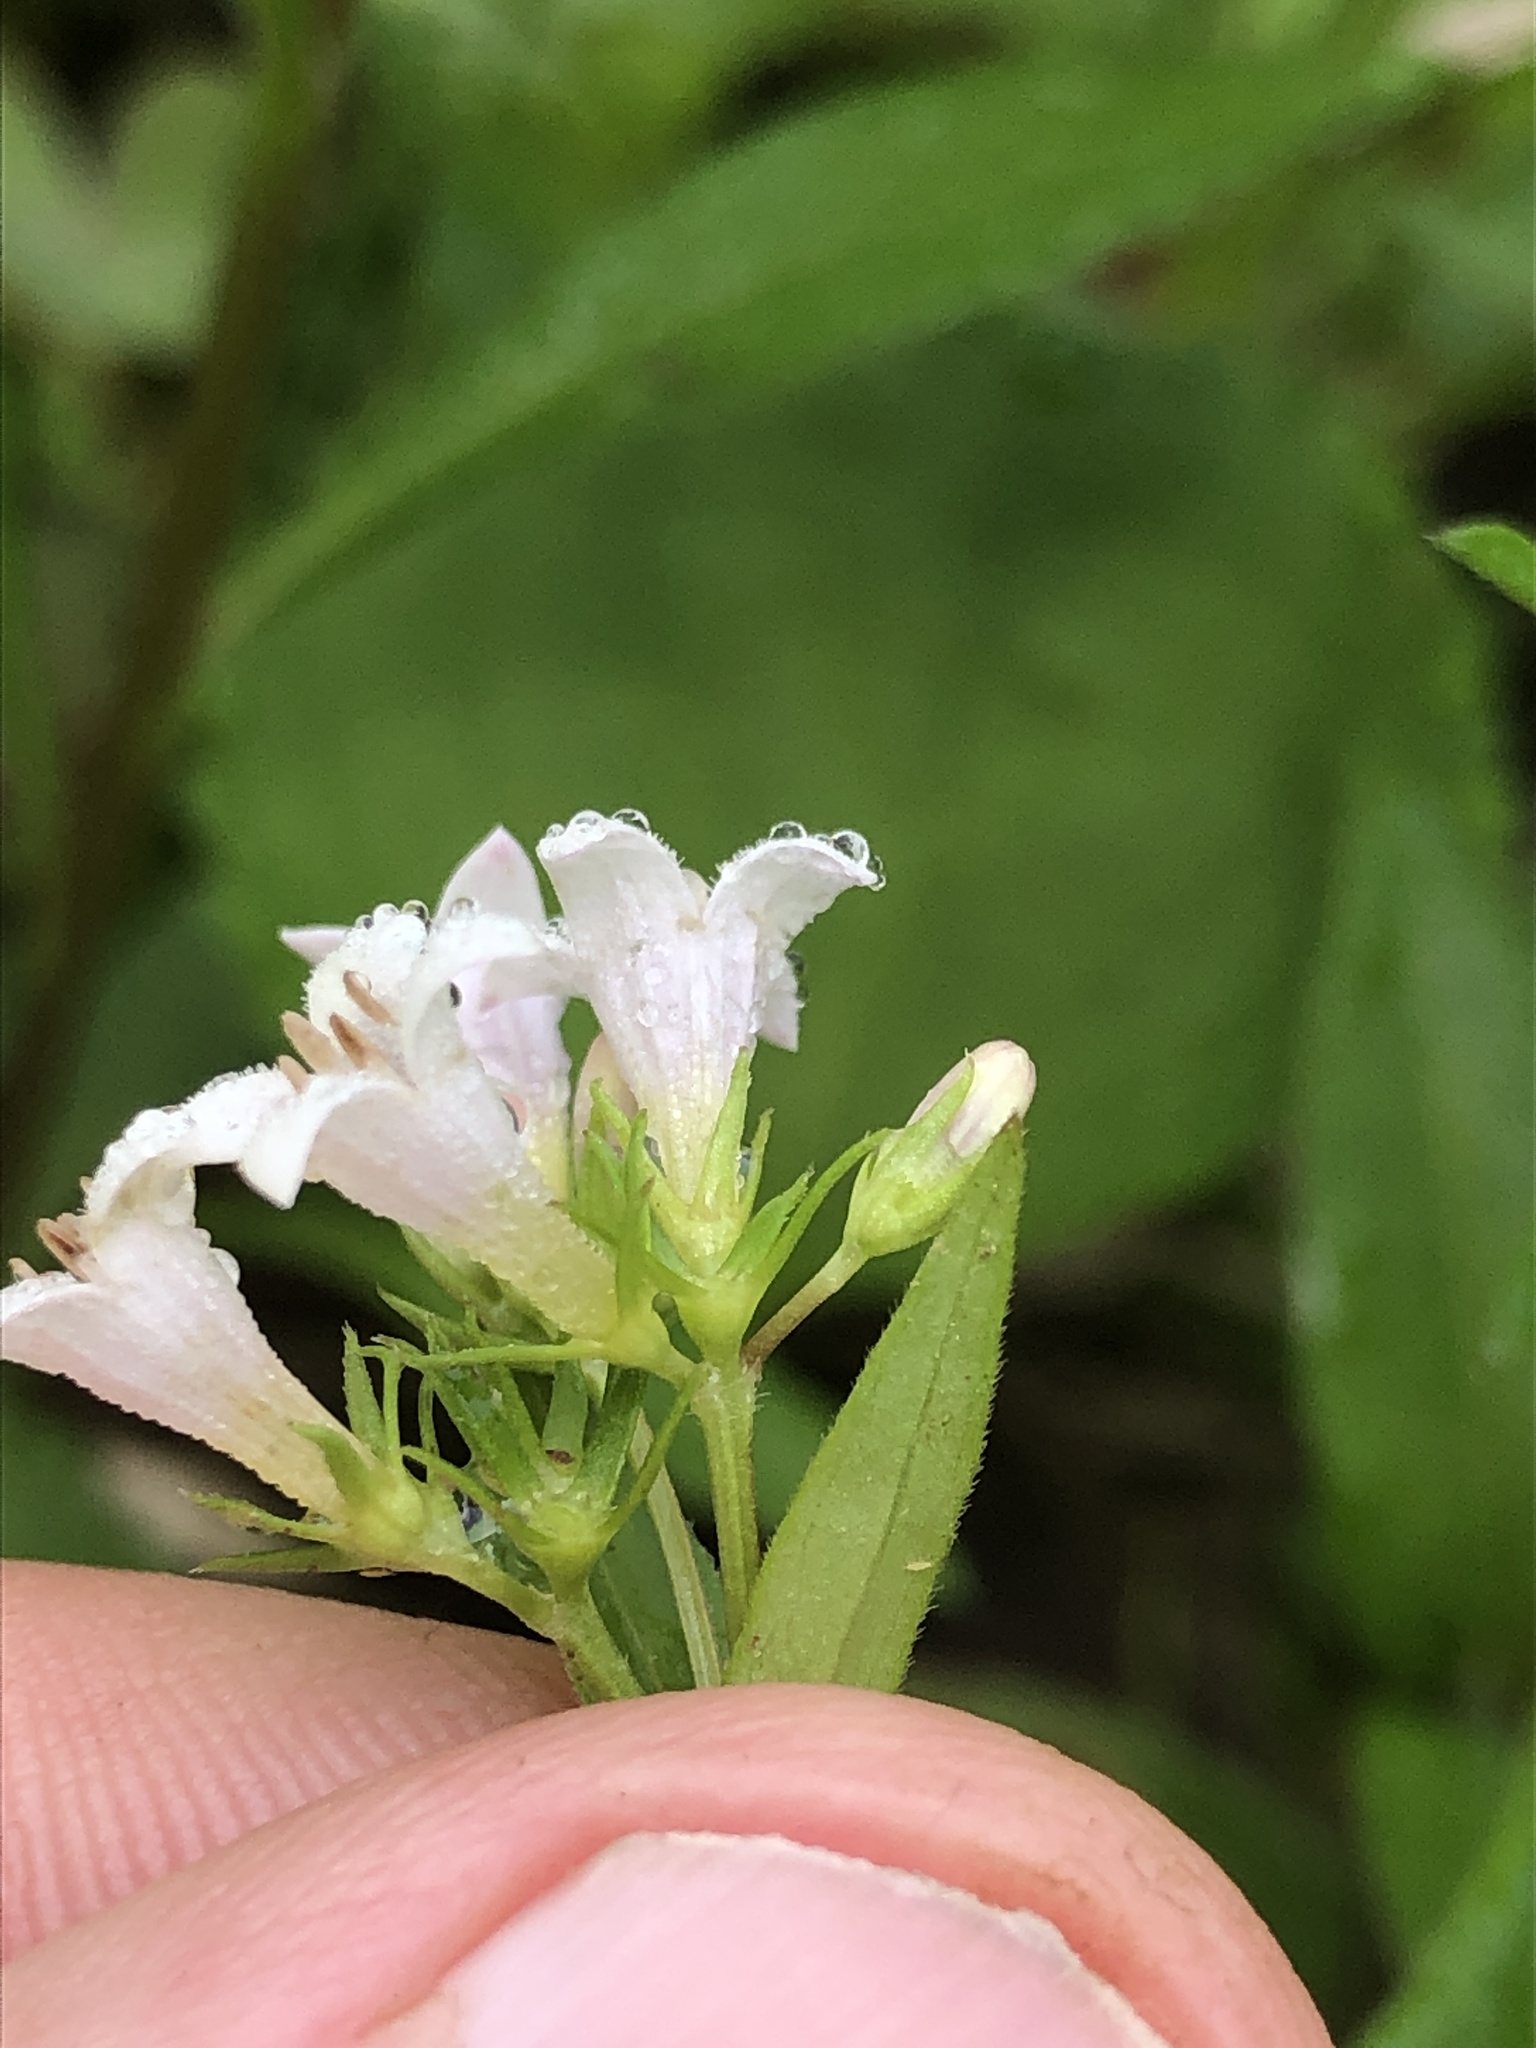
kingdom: Plantae
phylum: Tracheophyta
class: Magnoliopsida
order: Gentianales
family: Rubiaceae
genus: Houstonia
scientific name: Houstonia purpurea
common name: Summer bluet
